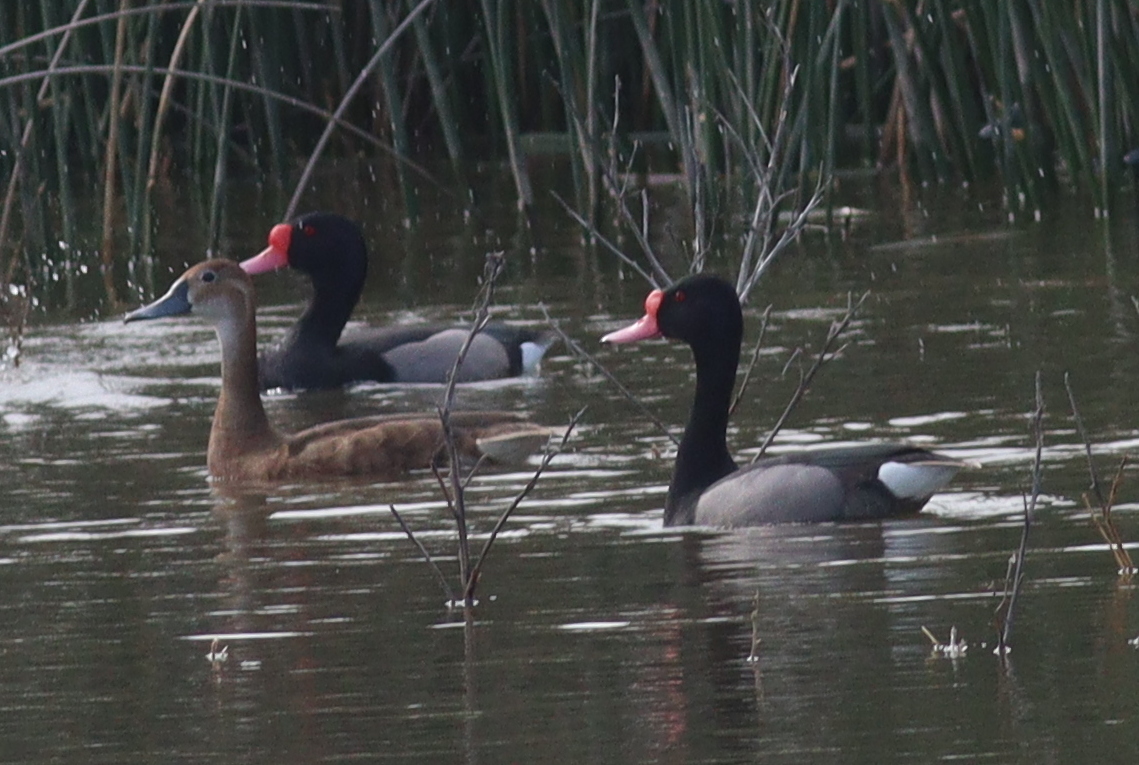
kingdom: Animalia
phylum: Chordata
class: Aves
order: Anseriformes
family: Anatidae
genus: Netta
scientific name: Netta peposaca
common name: Rosy-billed pochard
